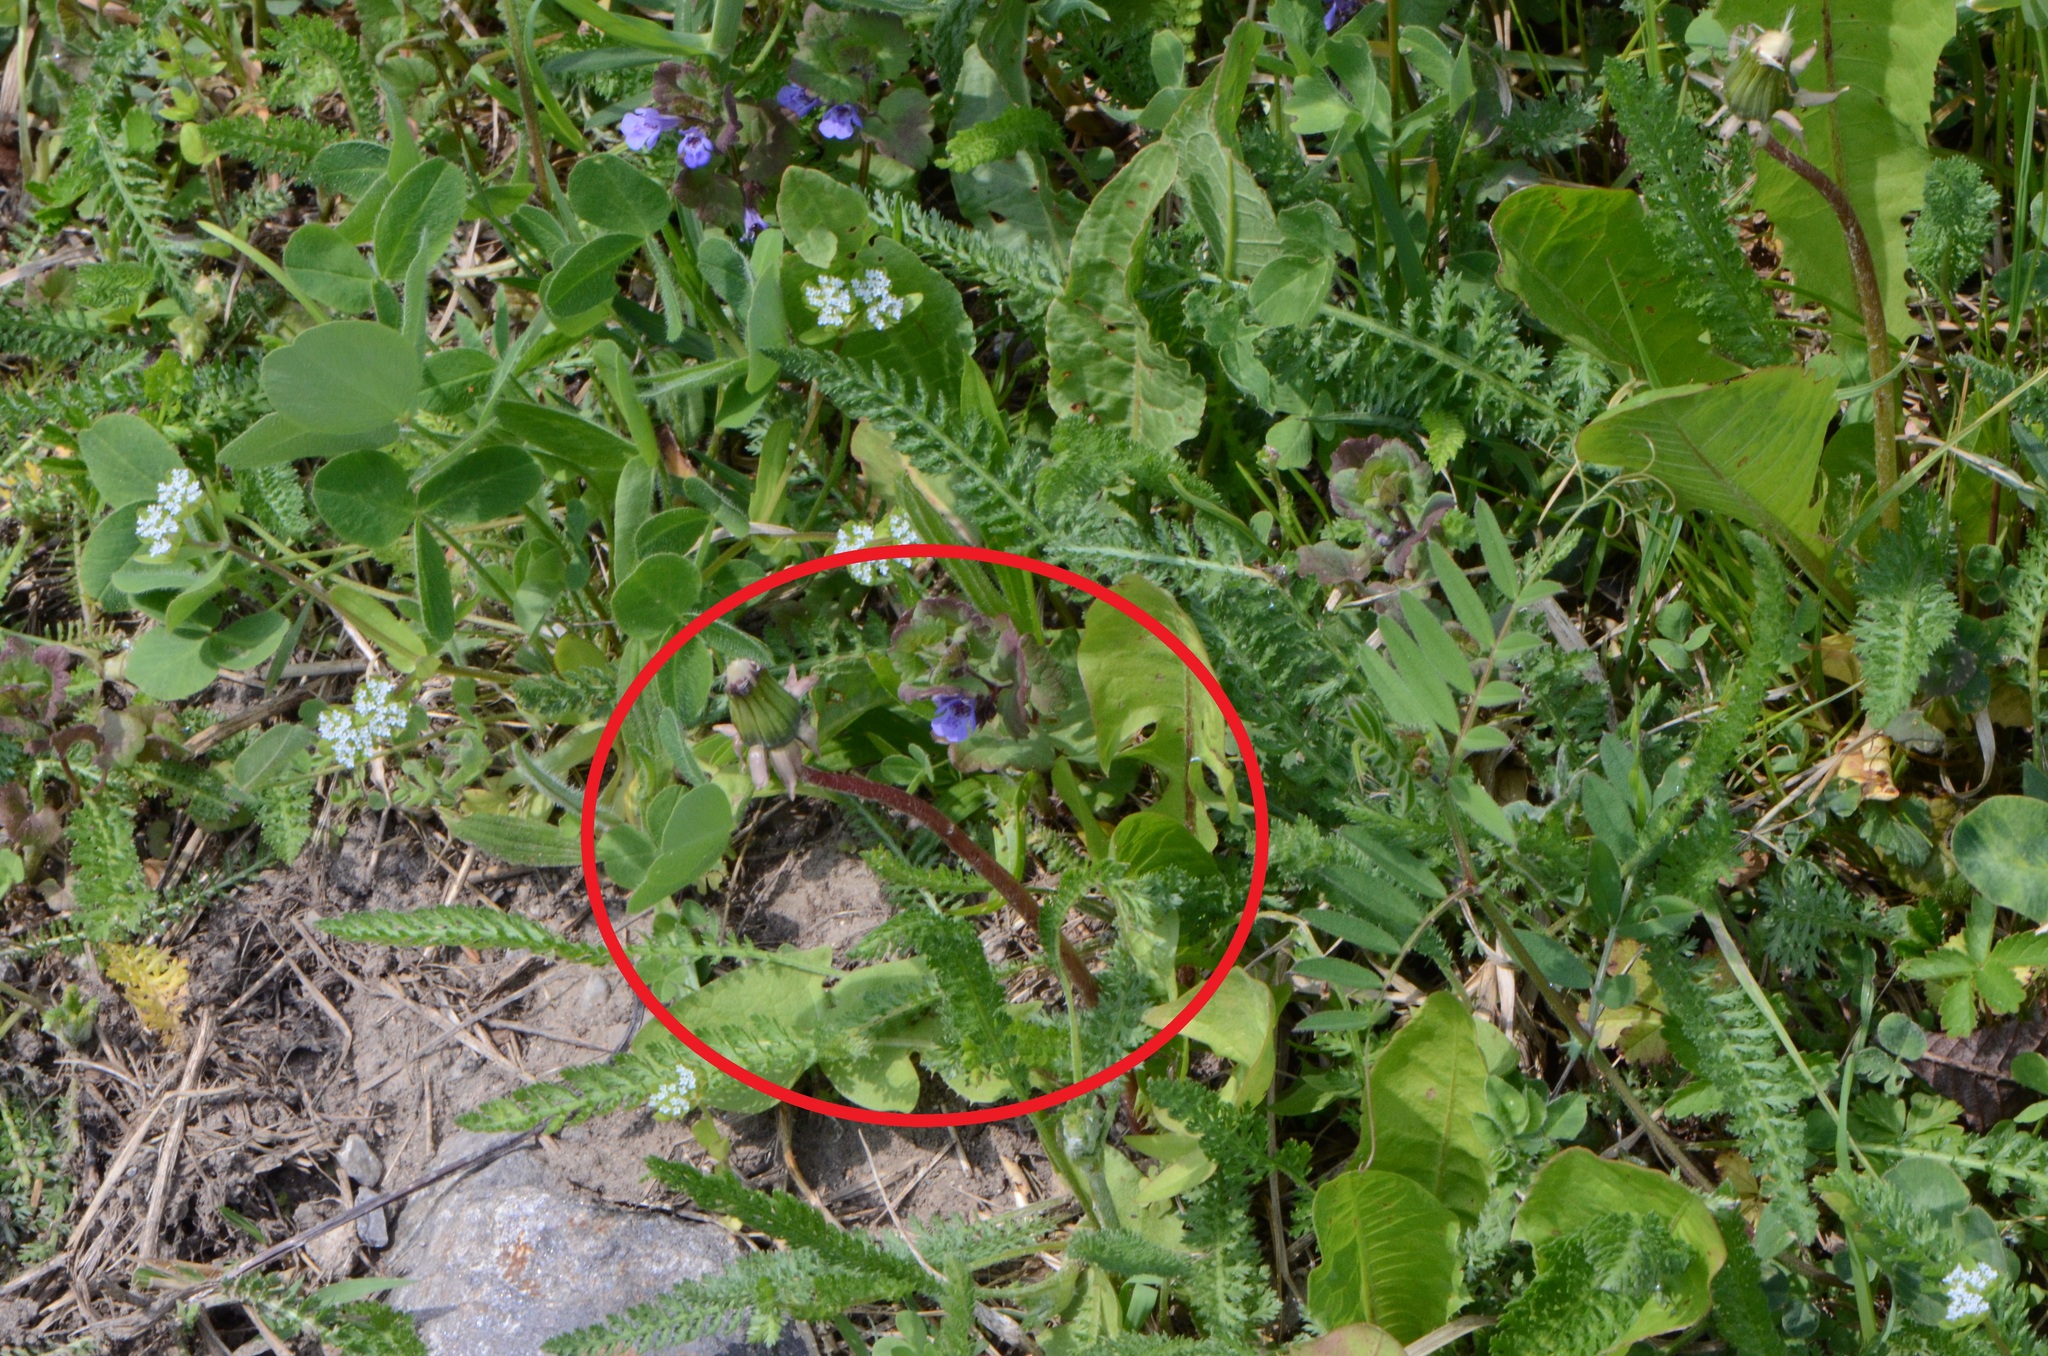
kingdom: Plantae
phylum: Tracheophyta
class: Magnoliopsida
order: Asterales
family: Asteraceae
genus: Taraxacum
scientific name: Taraxacum officinale
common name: Common dandelion
